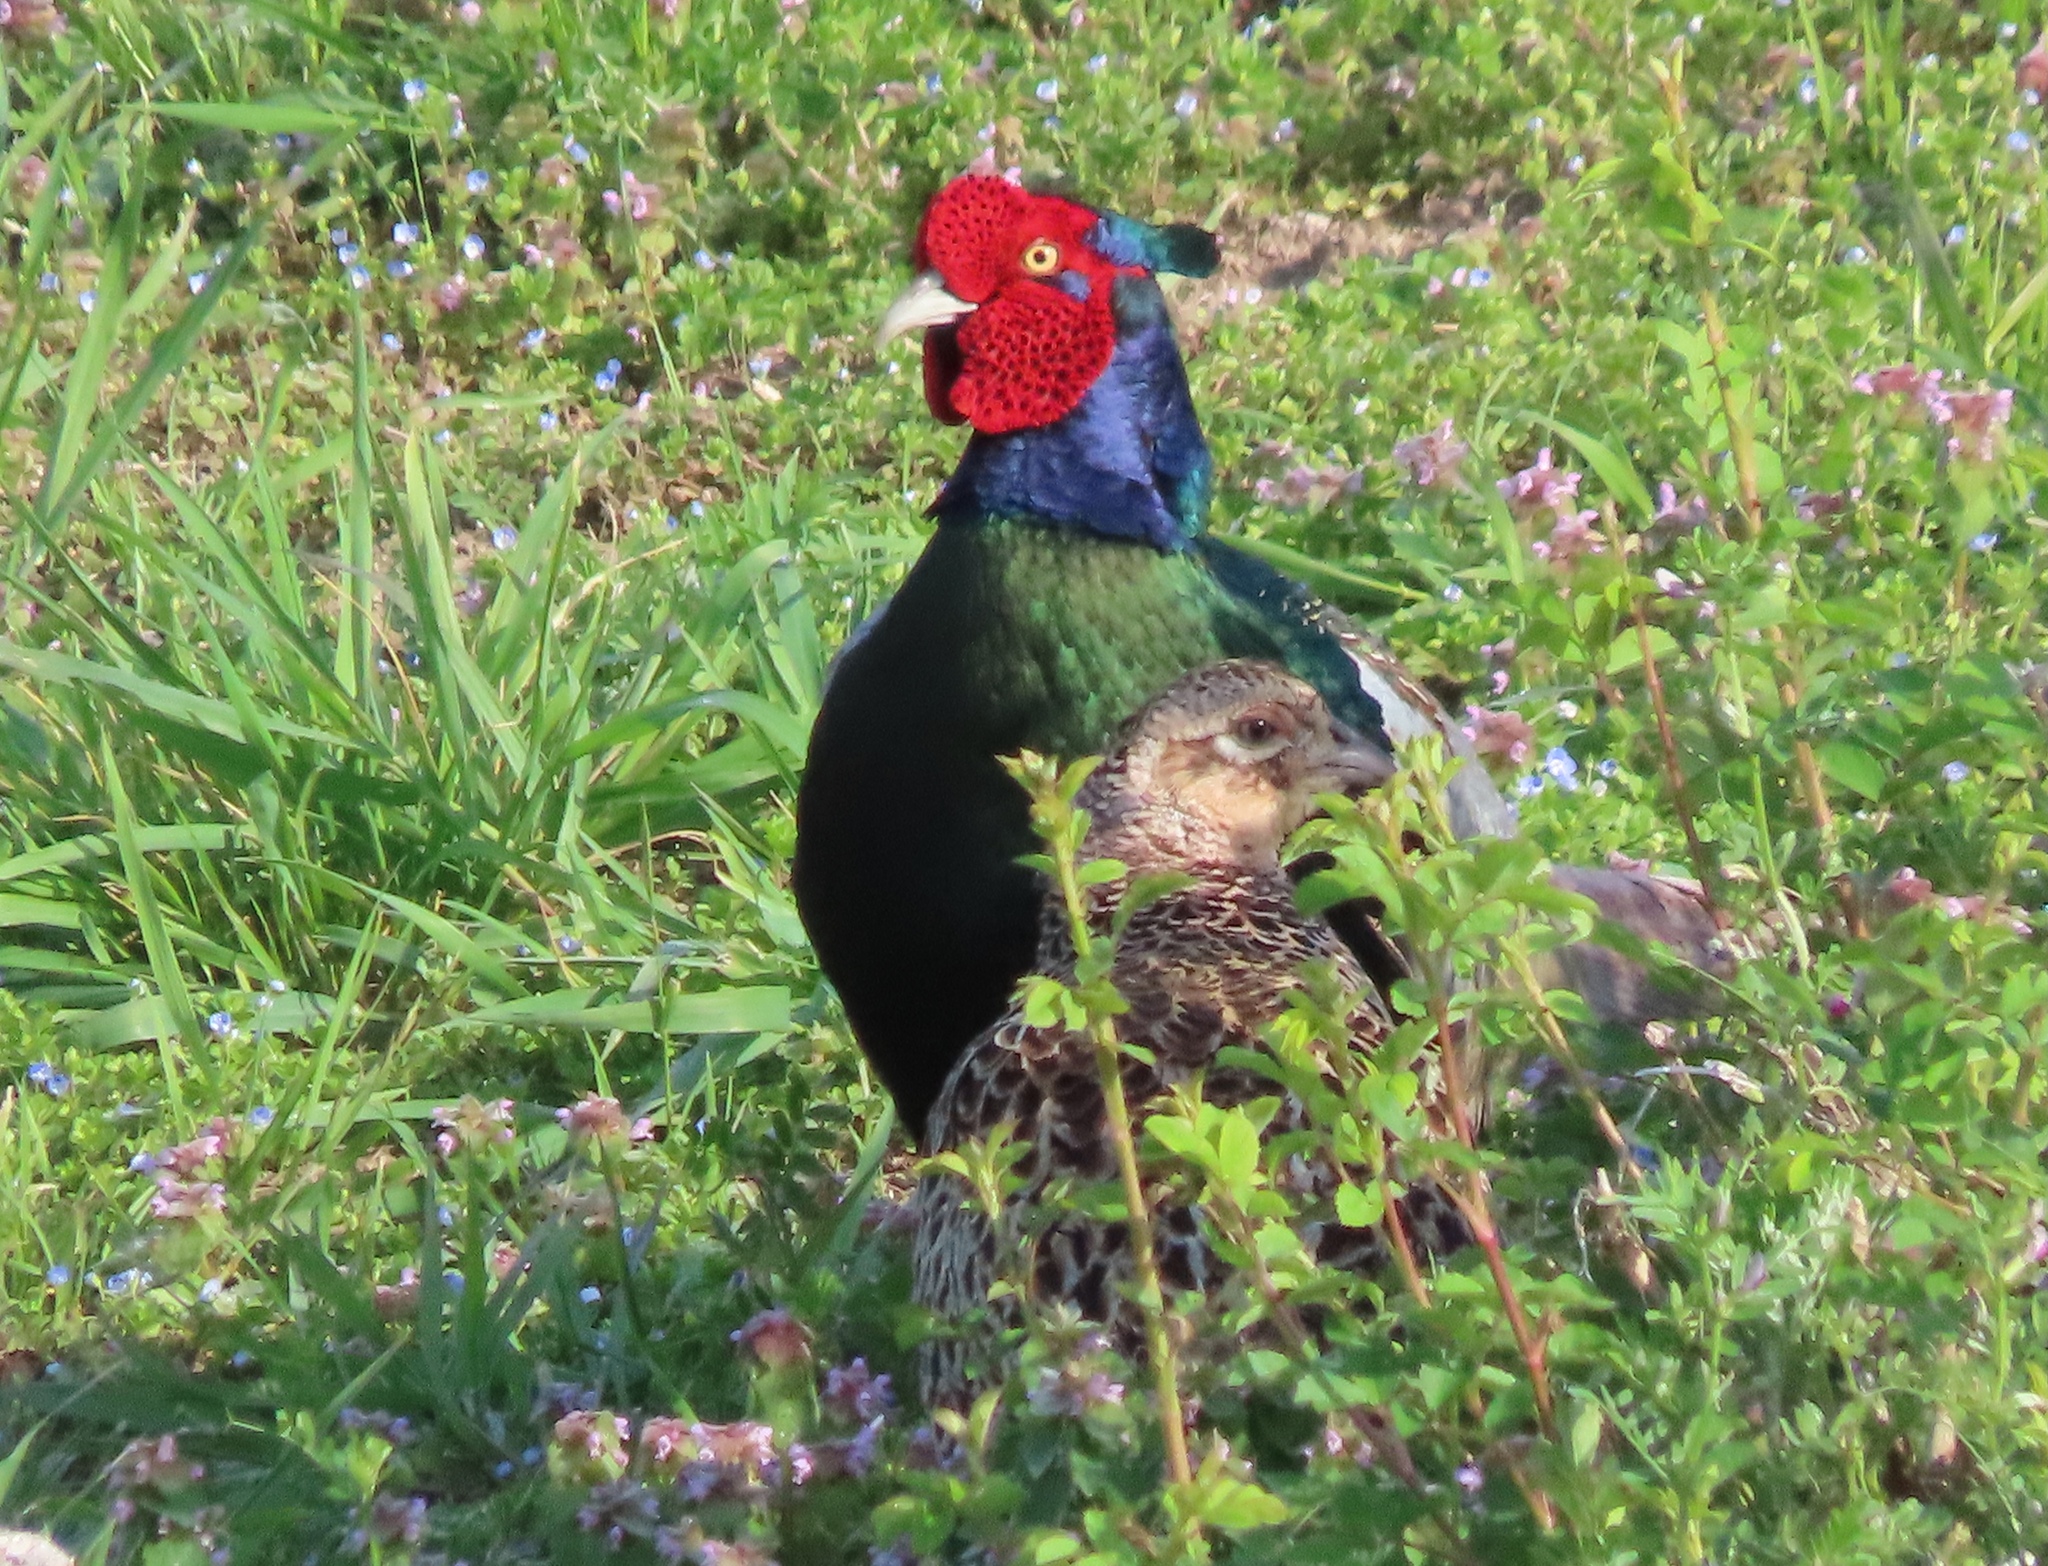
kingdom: Animalia
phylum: Chordata
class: Aves
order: Galliformes
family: Phasianidae
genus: Phasianus
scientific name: Phasianus versicolor
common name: Green pheasant
